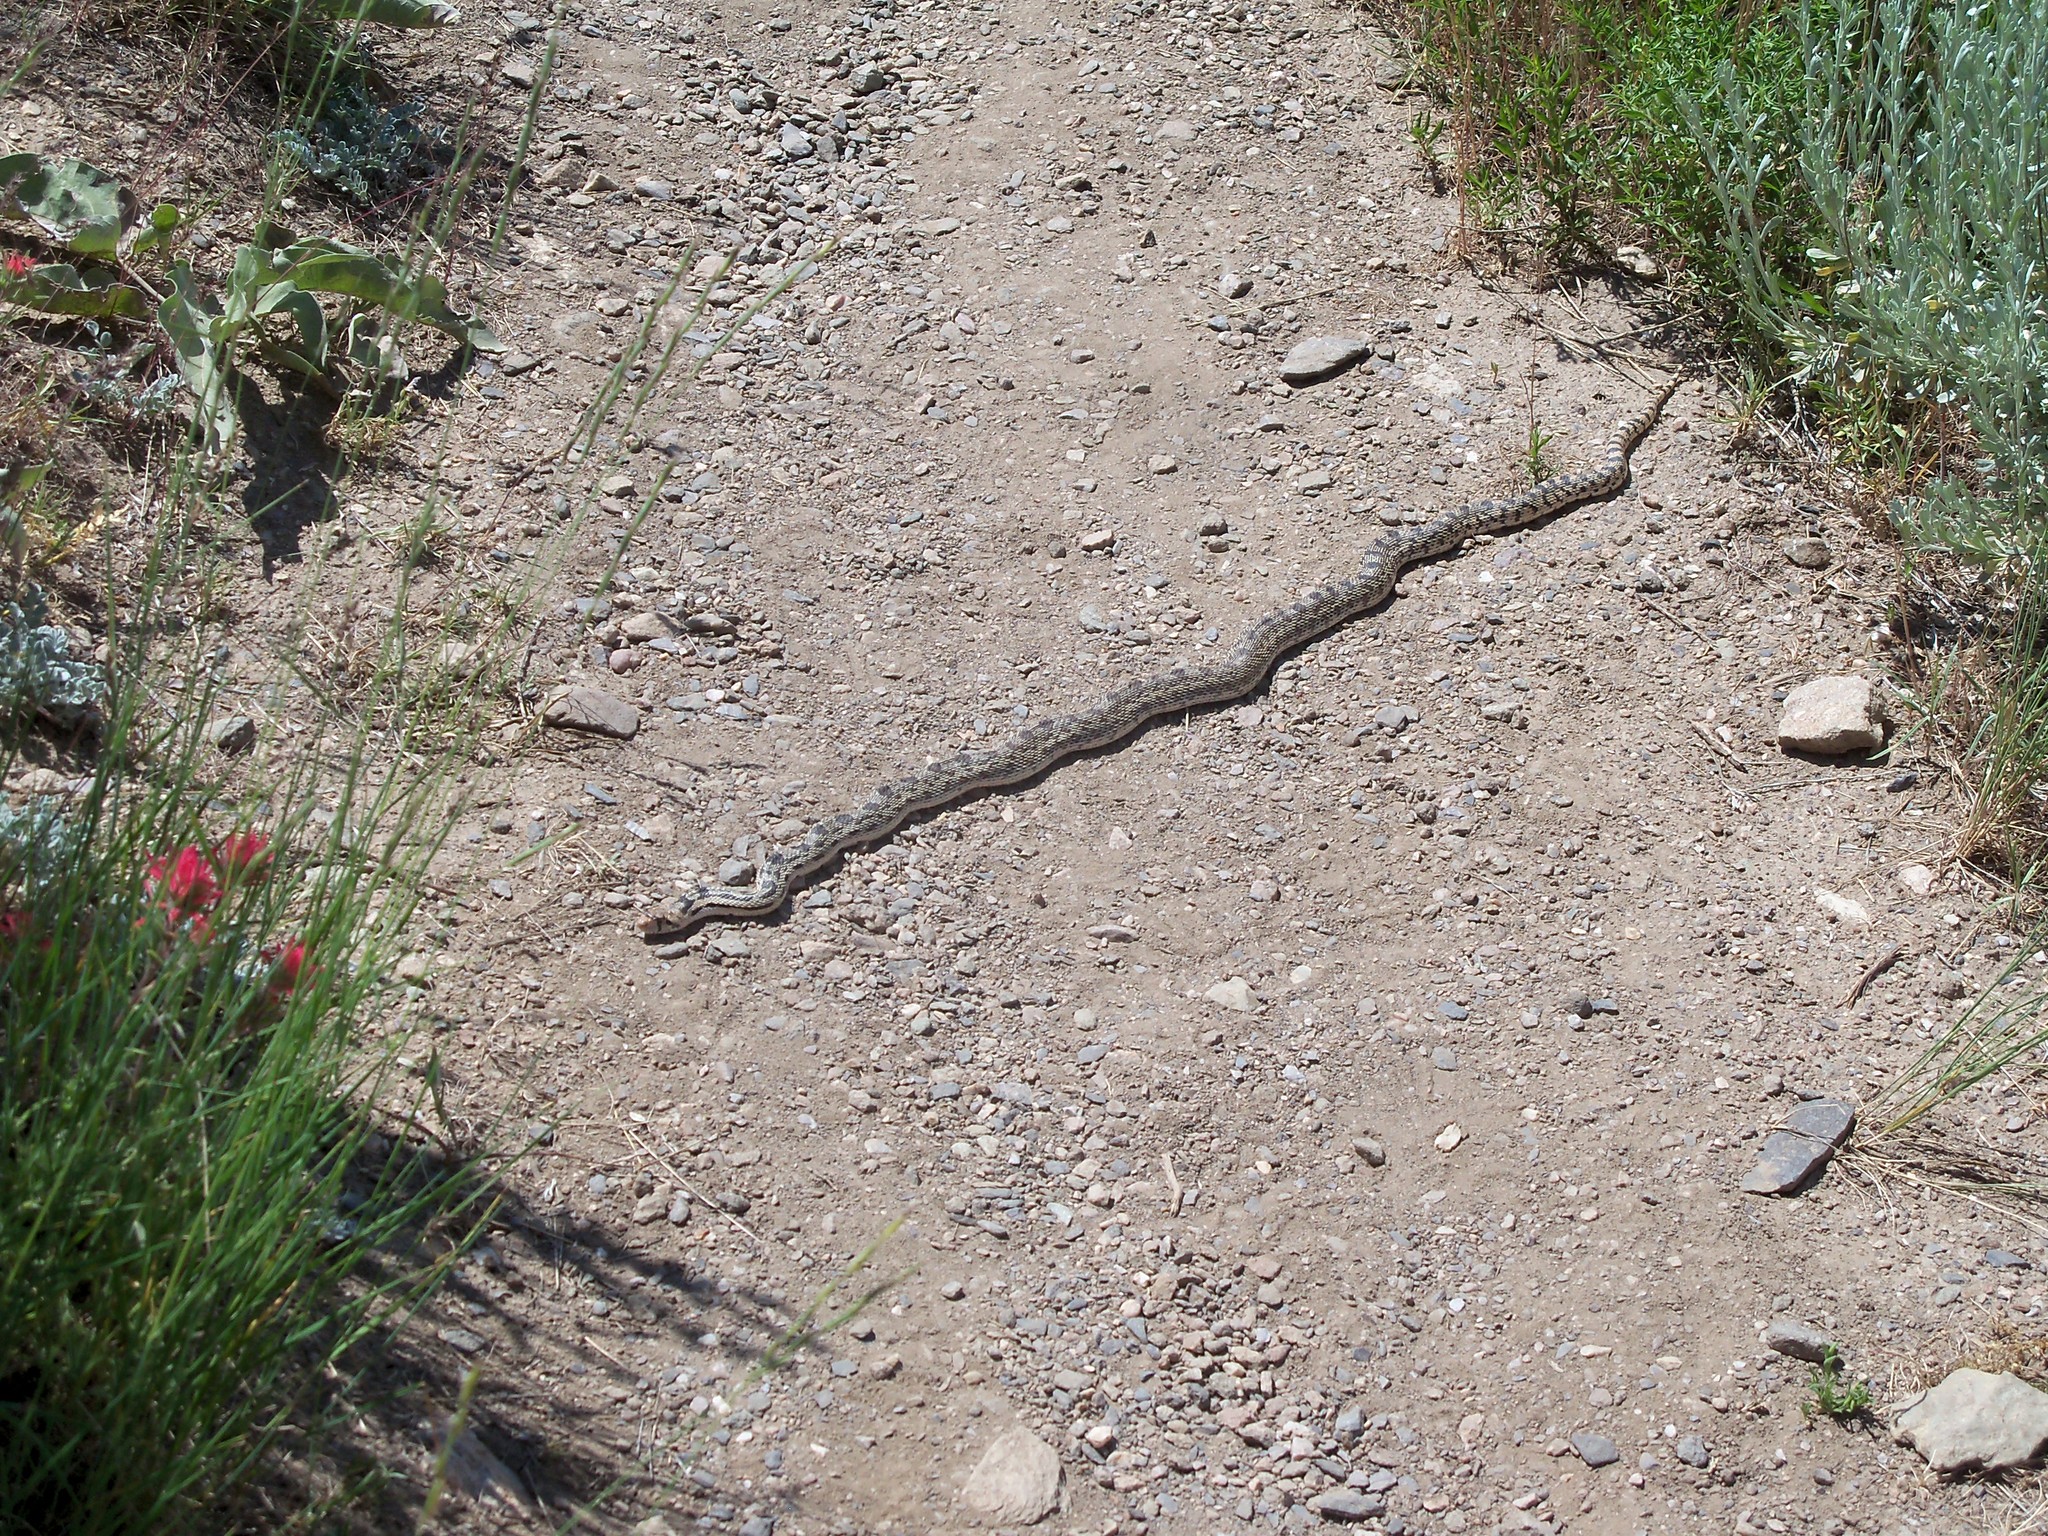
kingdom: Animalia
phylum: Chordata
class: Squamata
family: Colubridae
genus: Pituophis
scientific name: Pituophis catenifer
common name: Gopher snake
